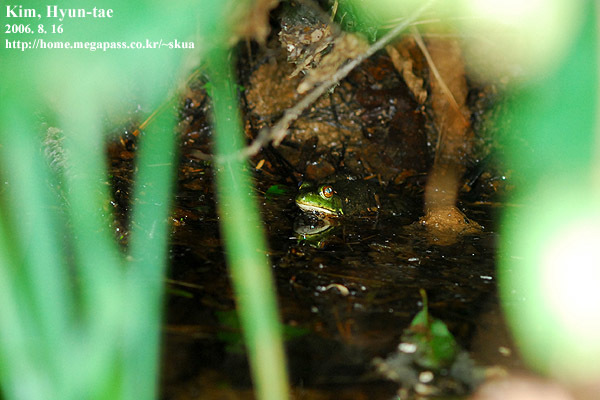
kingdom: Animalia
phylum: Chordata
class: Amphibia
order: Anura
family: Ranidae
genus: Lithobates
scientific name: Lithobates catesbeianus
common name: American bullfrog
